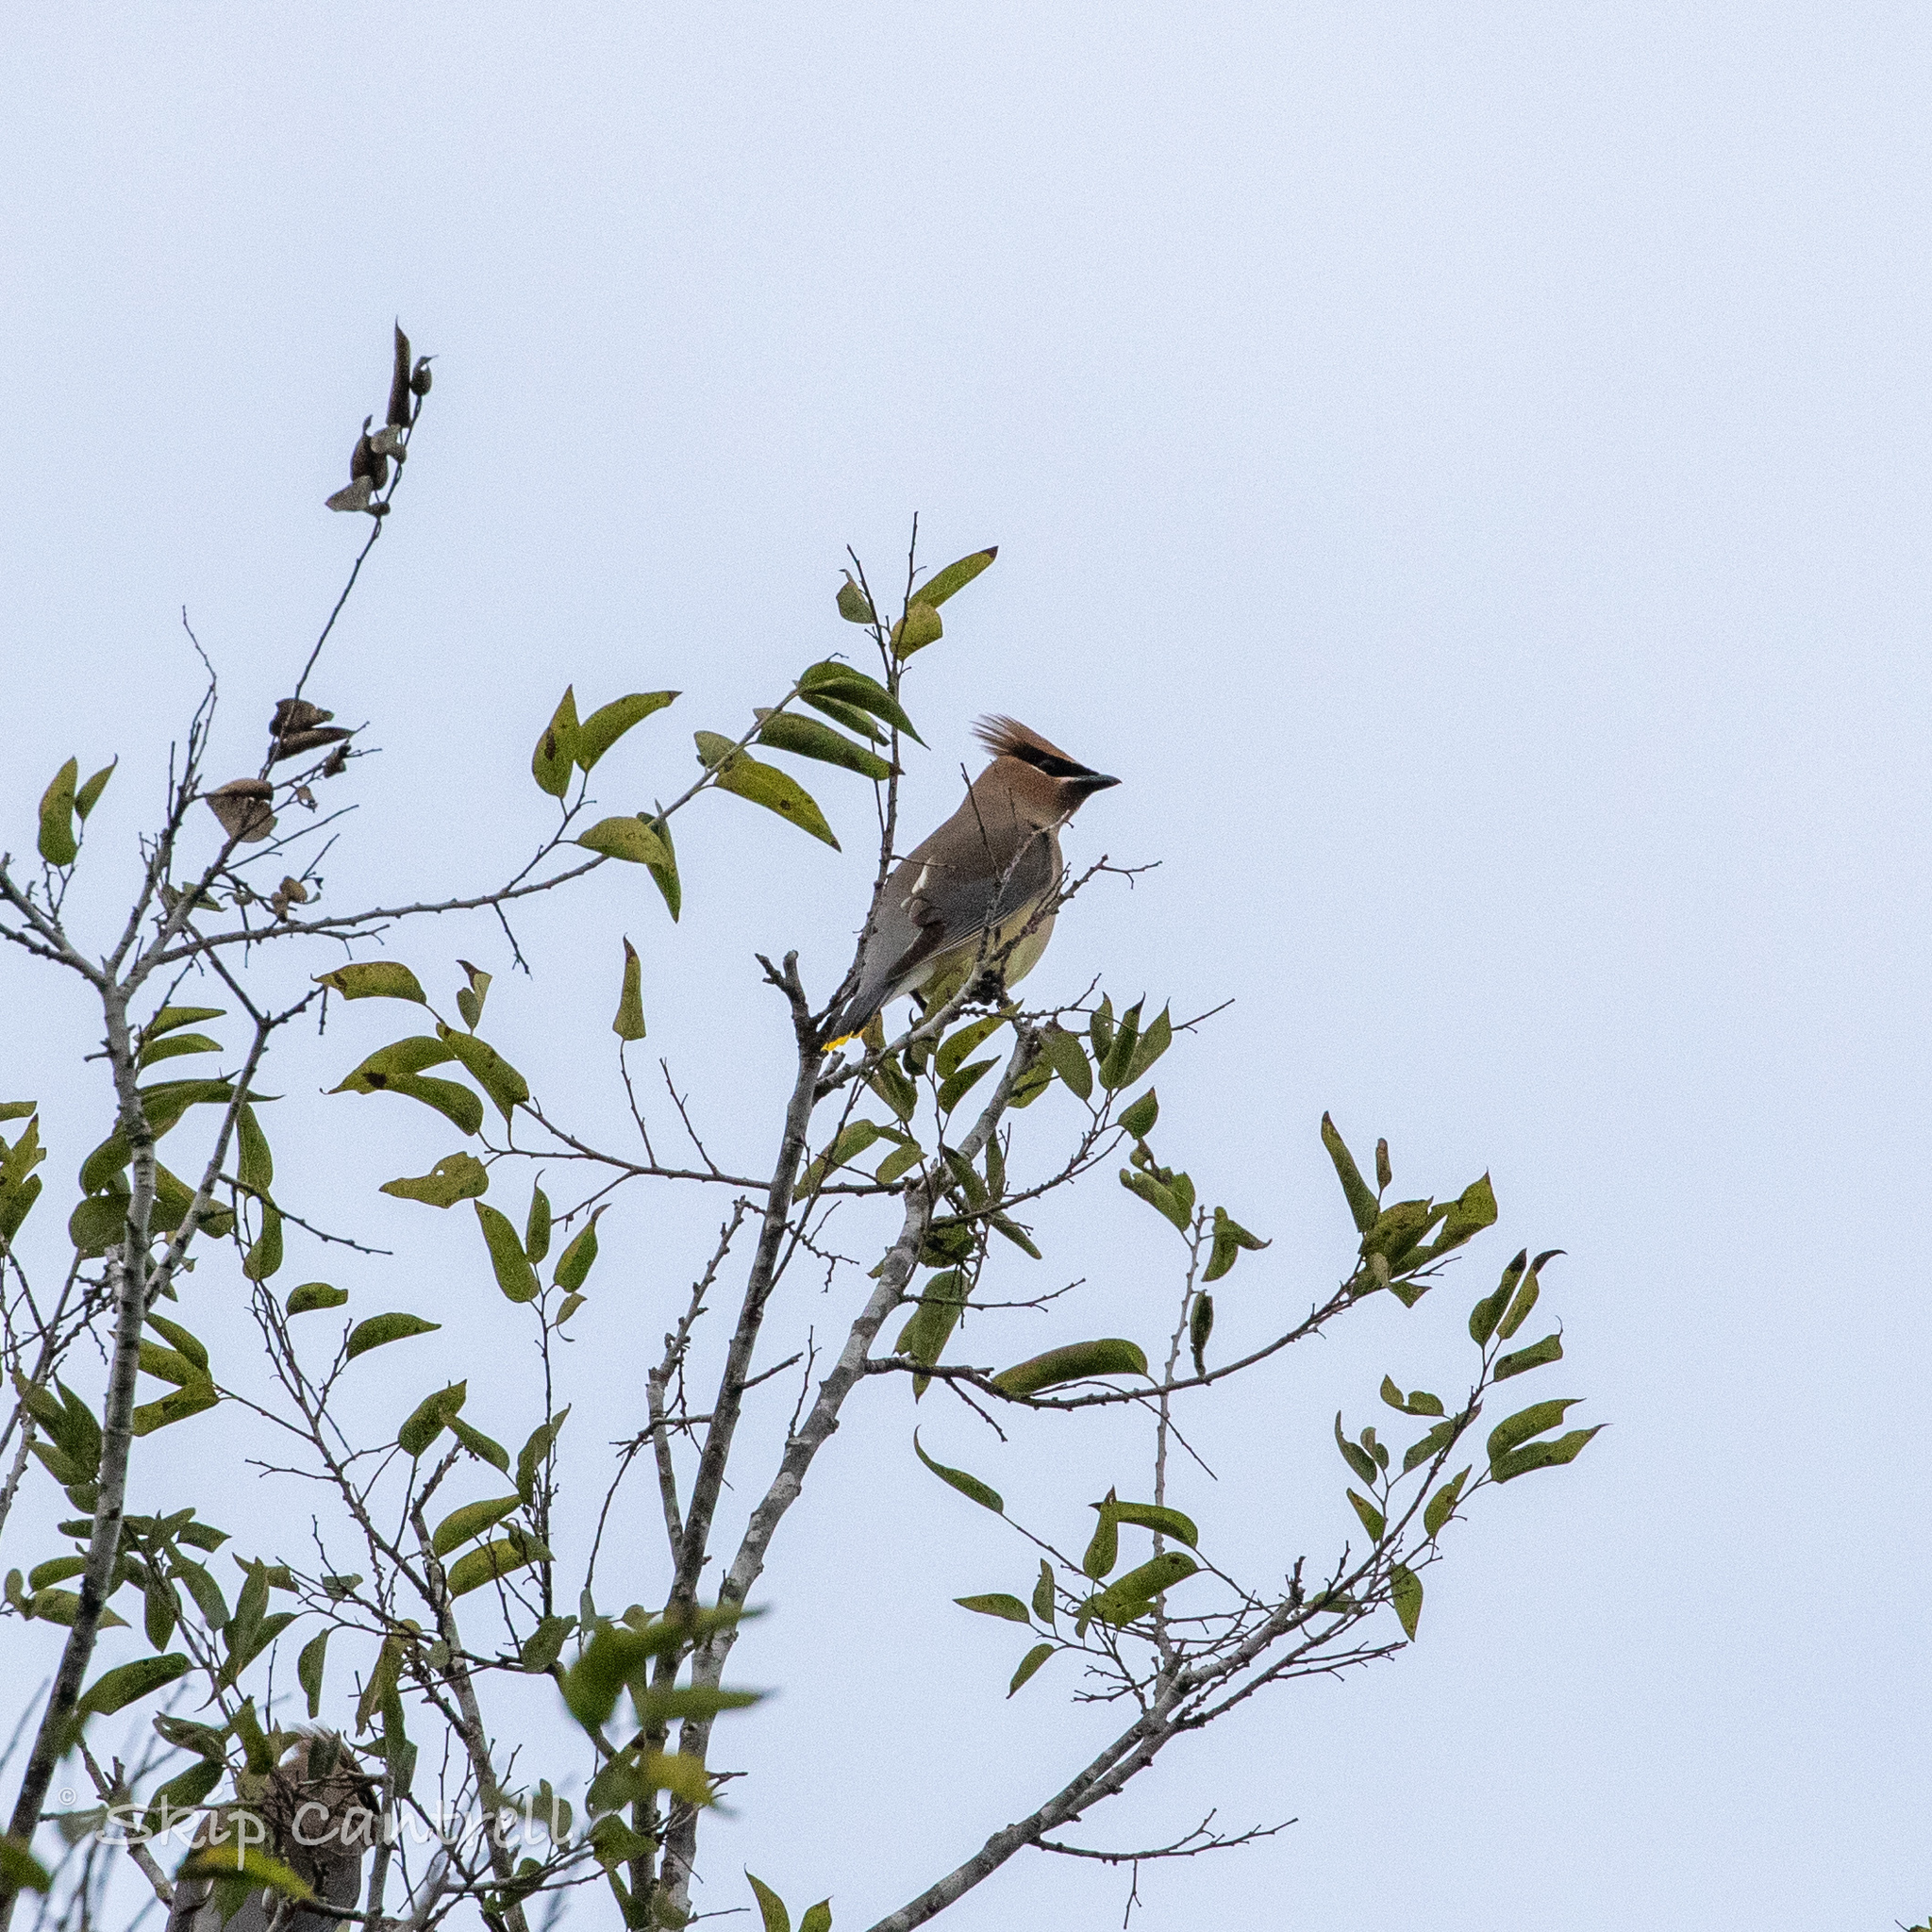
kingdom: Animalia
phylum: Chordata
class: Aves
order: Passeriformes
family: Bombycillidae
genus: Bombycilla
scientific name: Bombycilla cedrorum
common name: Cedar waxwing
